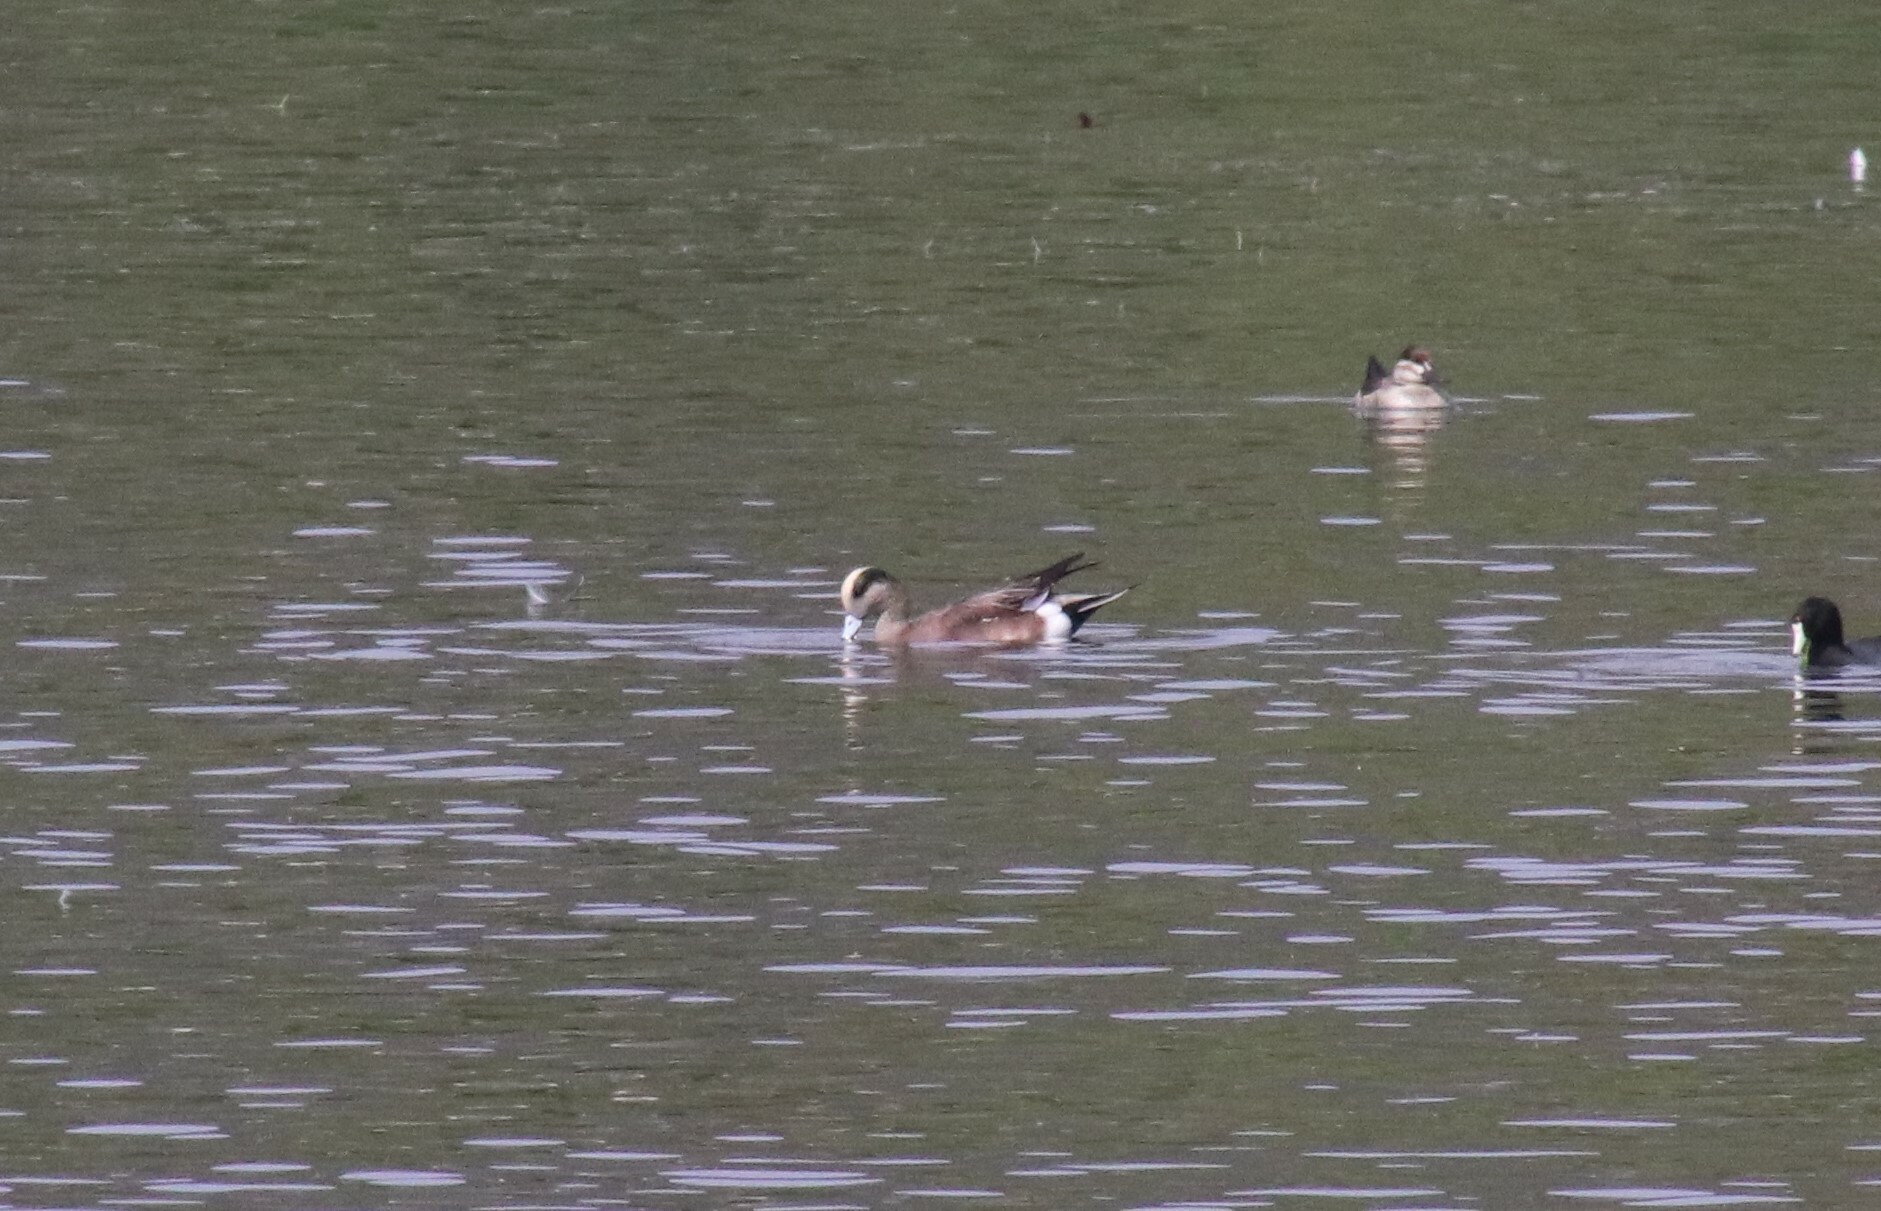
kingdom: Animalia
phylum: Chordata
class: Aves
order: Anseriformes
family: Anatidae
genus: Mareca
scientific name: Mareca americana
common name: American wigeon
